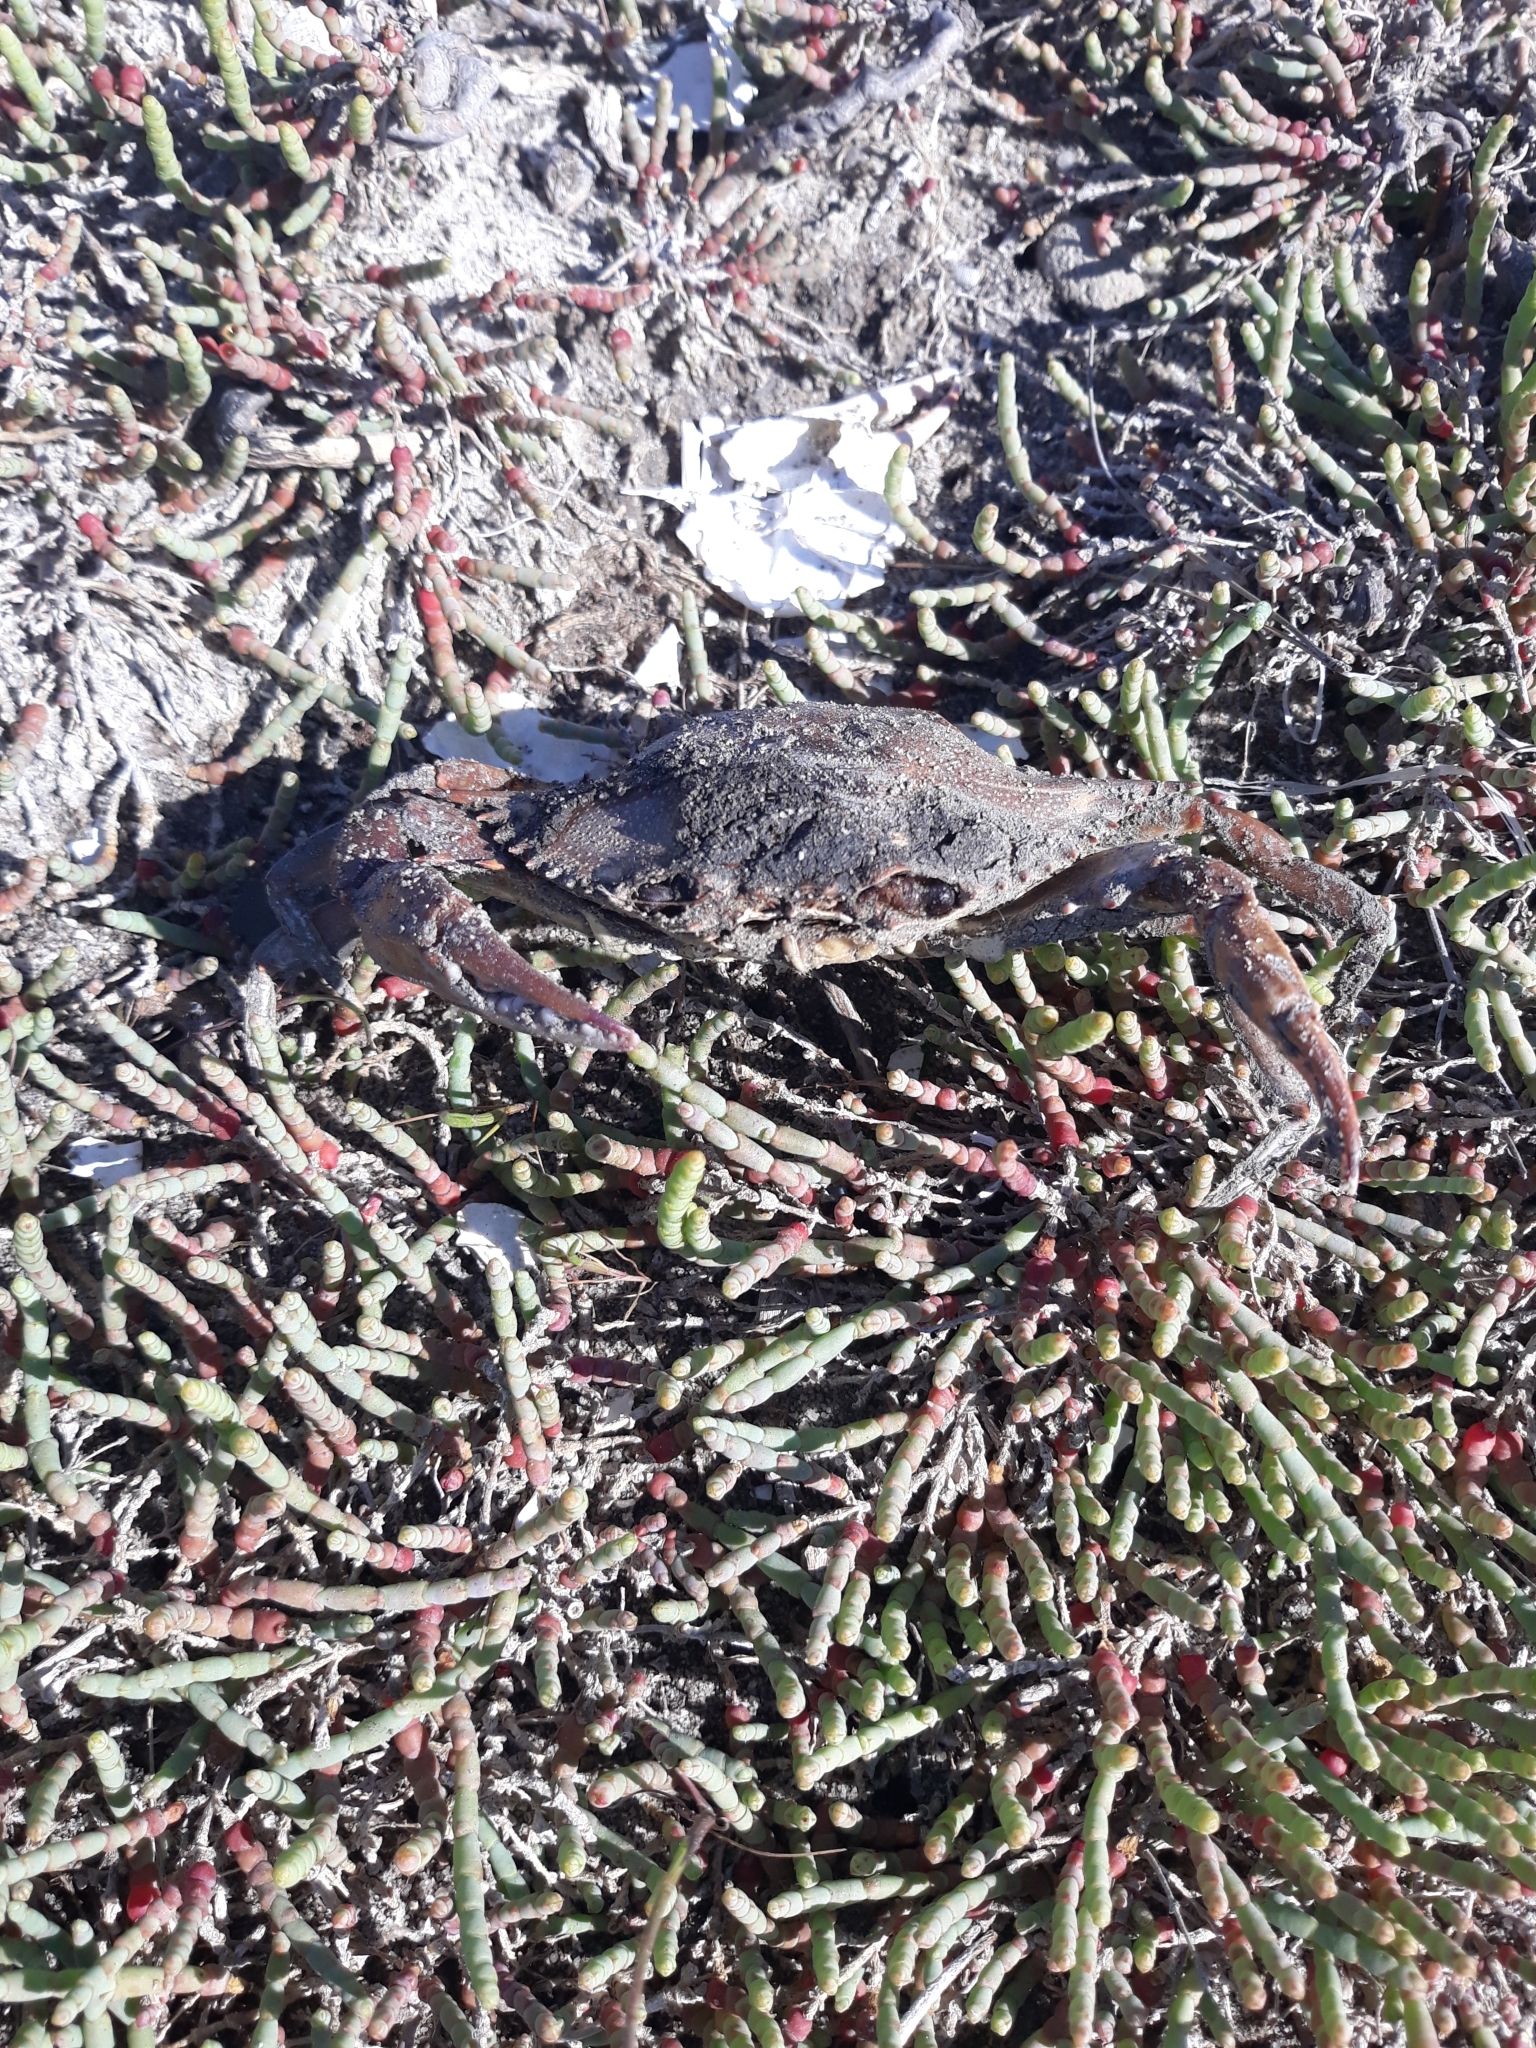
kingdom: Animalia
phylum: Arthropoda
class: Malacostraca
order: Decapoda
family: Portunidae
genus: Callinectes
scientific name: Callinectes sapidus
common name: Blue crab
